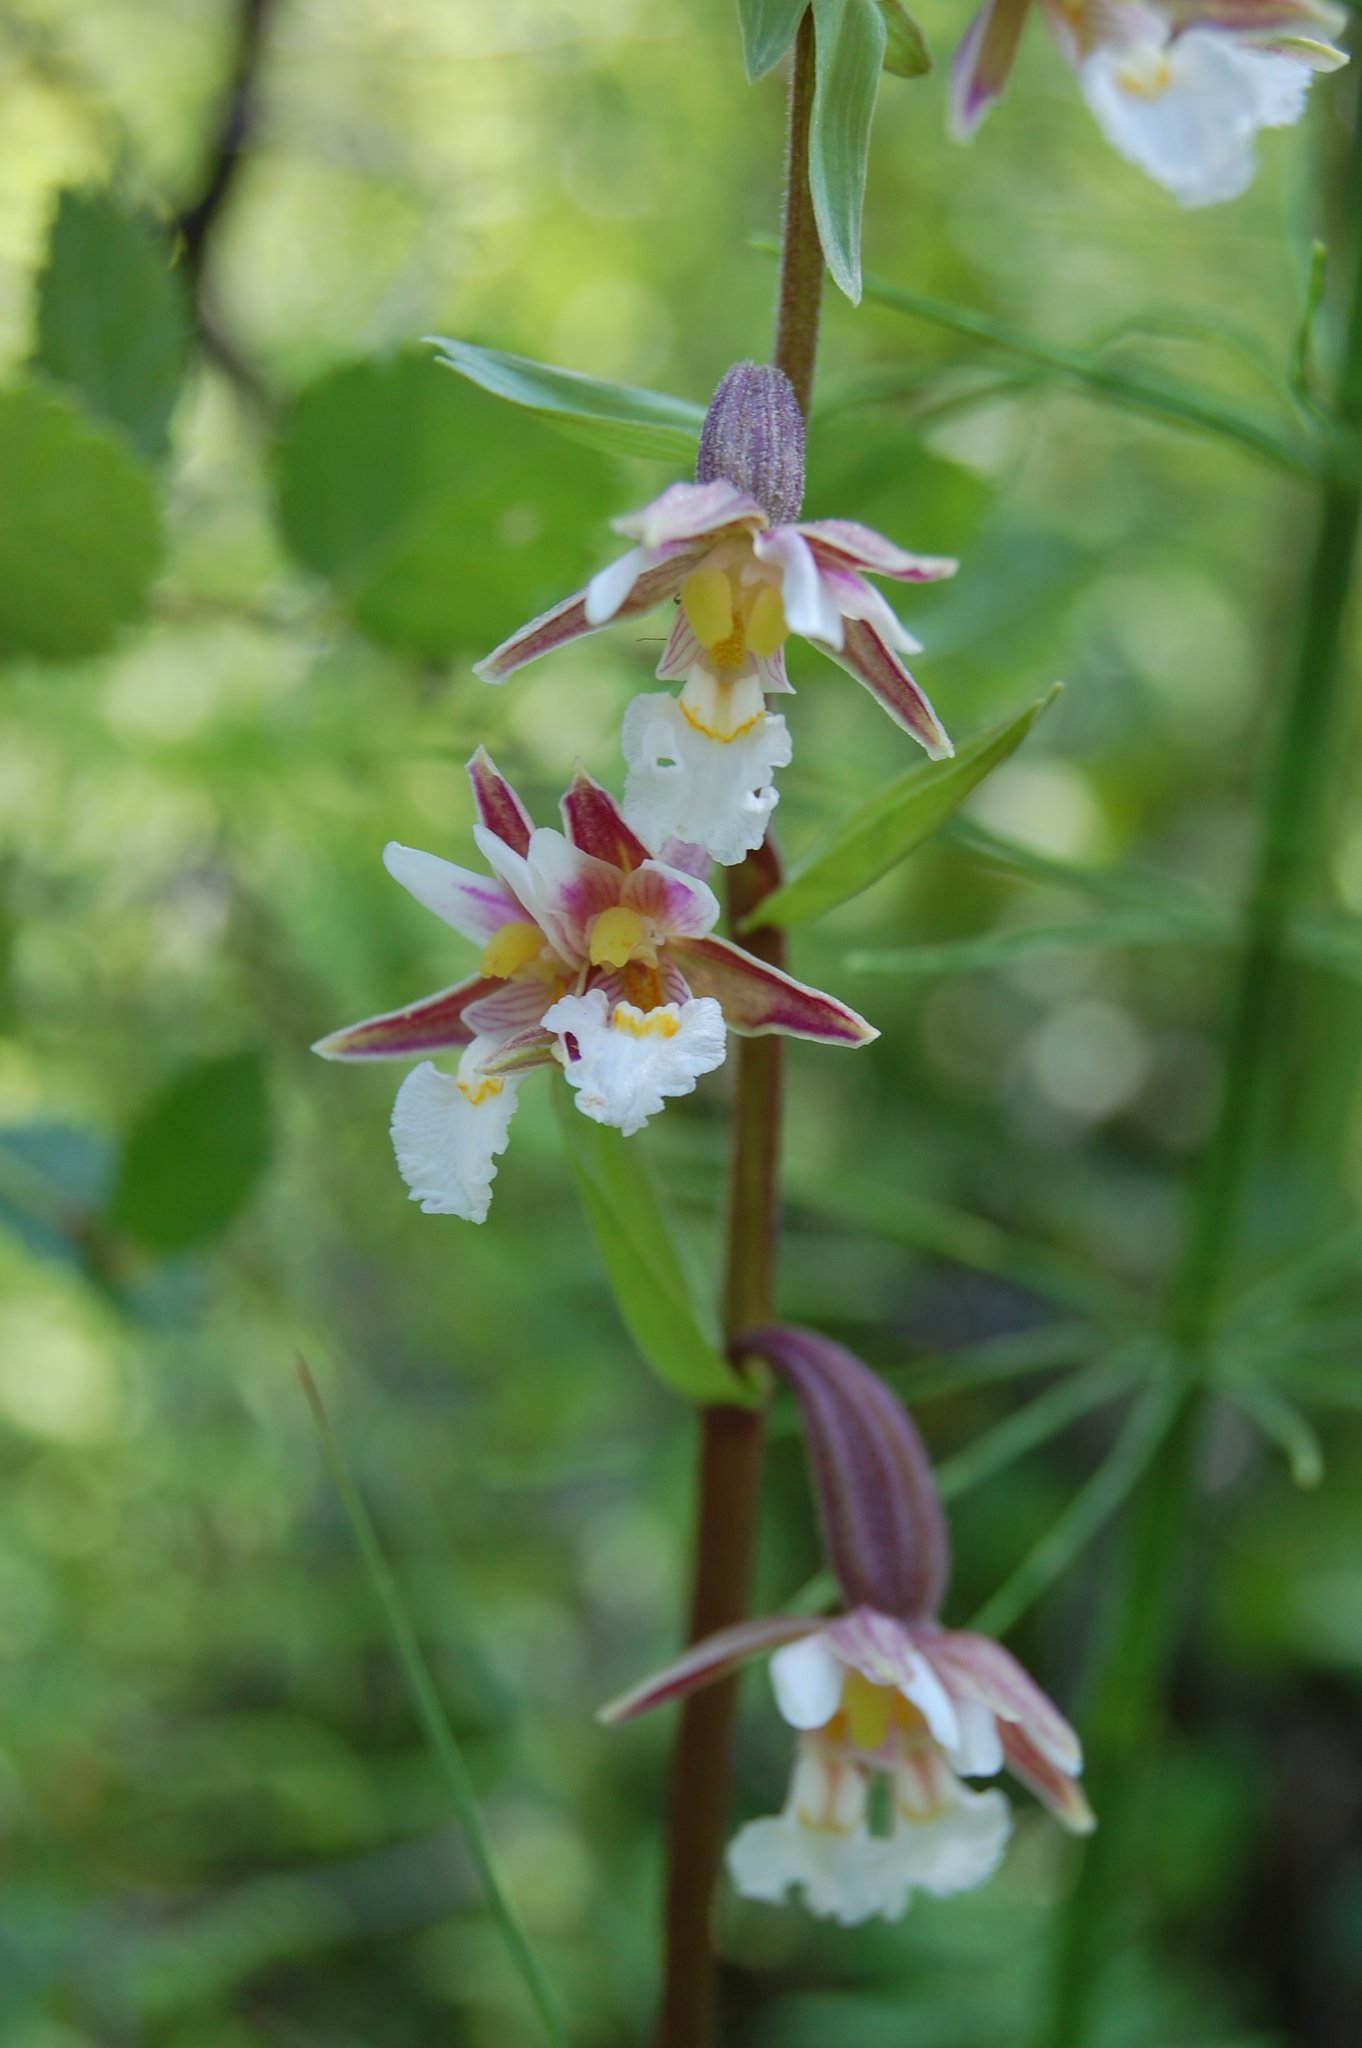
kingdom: Plantae
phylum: Tracheophyta
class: Liliopsida
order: Asparagales
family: Orchidaceae
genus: Epipactis
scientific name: Epipactis palustris
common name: Marsh helleborine
